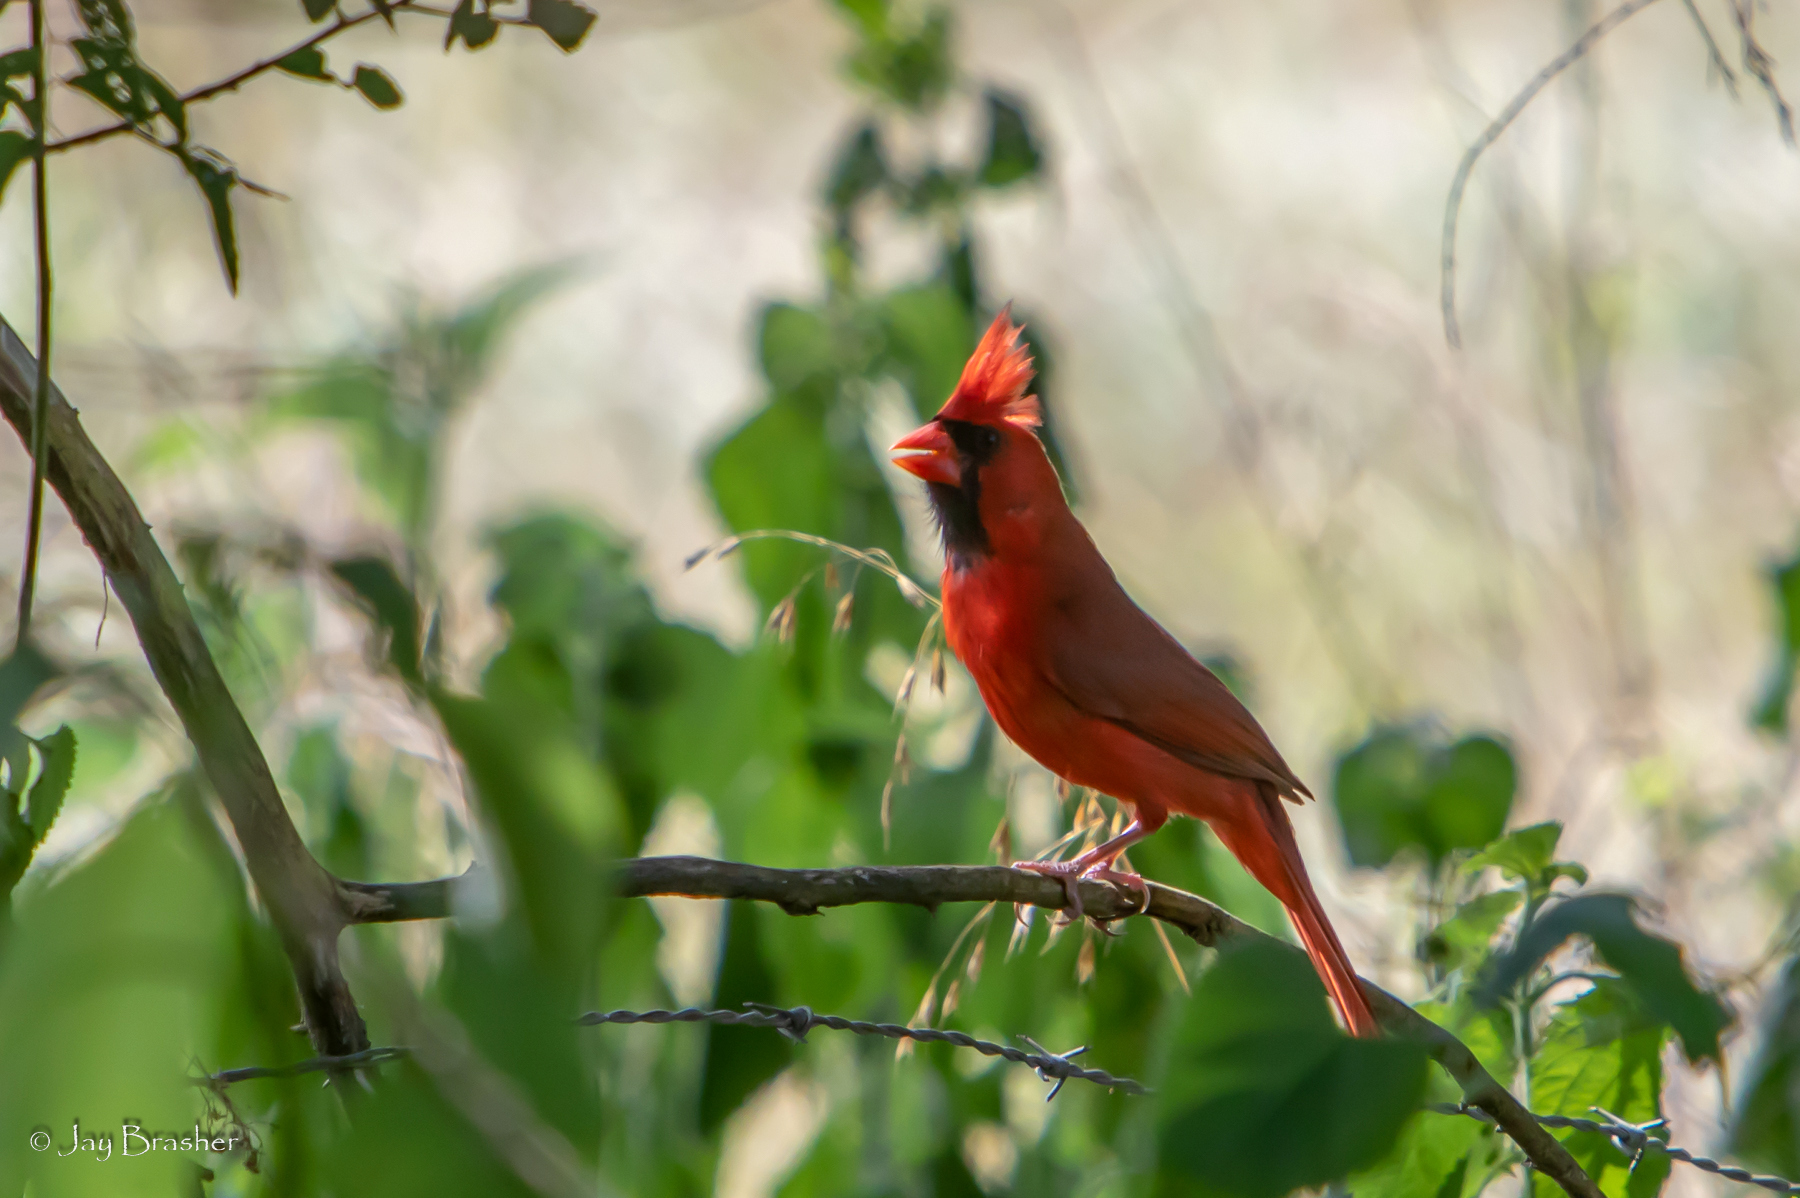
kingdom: Animalia
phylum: Chordata
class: Aves
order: Passeriformes
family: Cardinalidae
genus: Cardinalis
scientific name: Cardinalis cardinalis
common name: Northern cardinal
